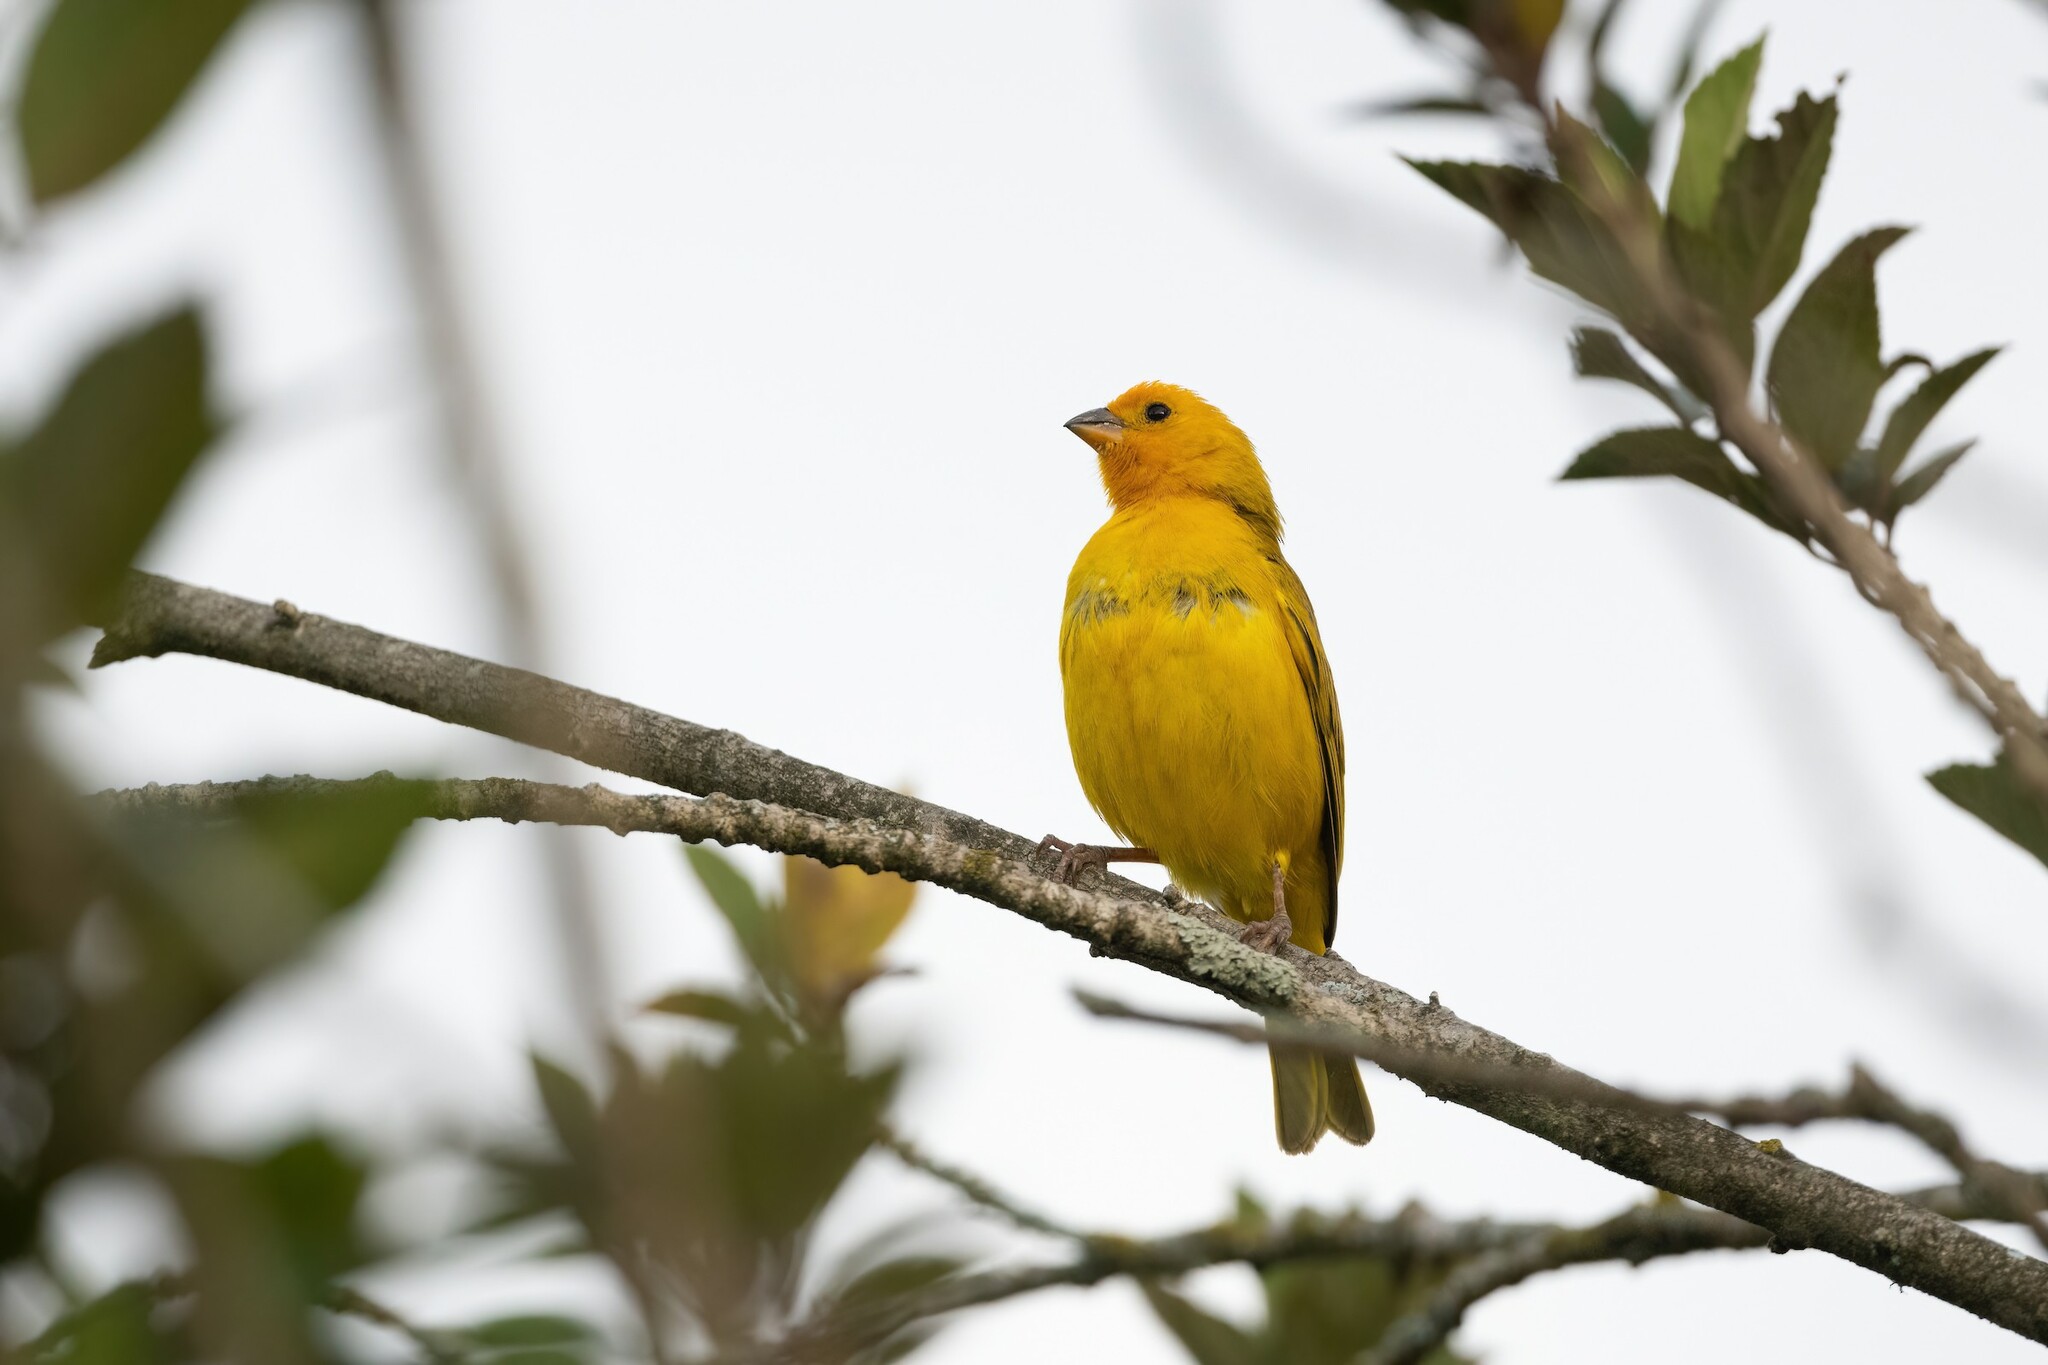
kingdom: Animalia
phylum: Chordata
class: Aves
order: Passeriformes
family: Thraupidae
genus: Sicalis
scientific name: Sicalis flaveola
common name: Saffron finch
